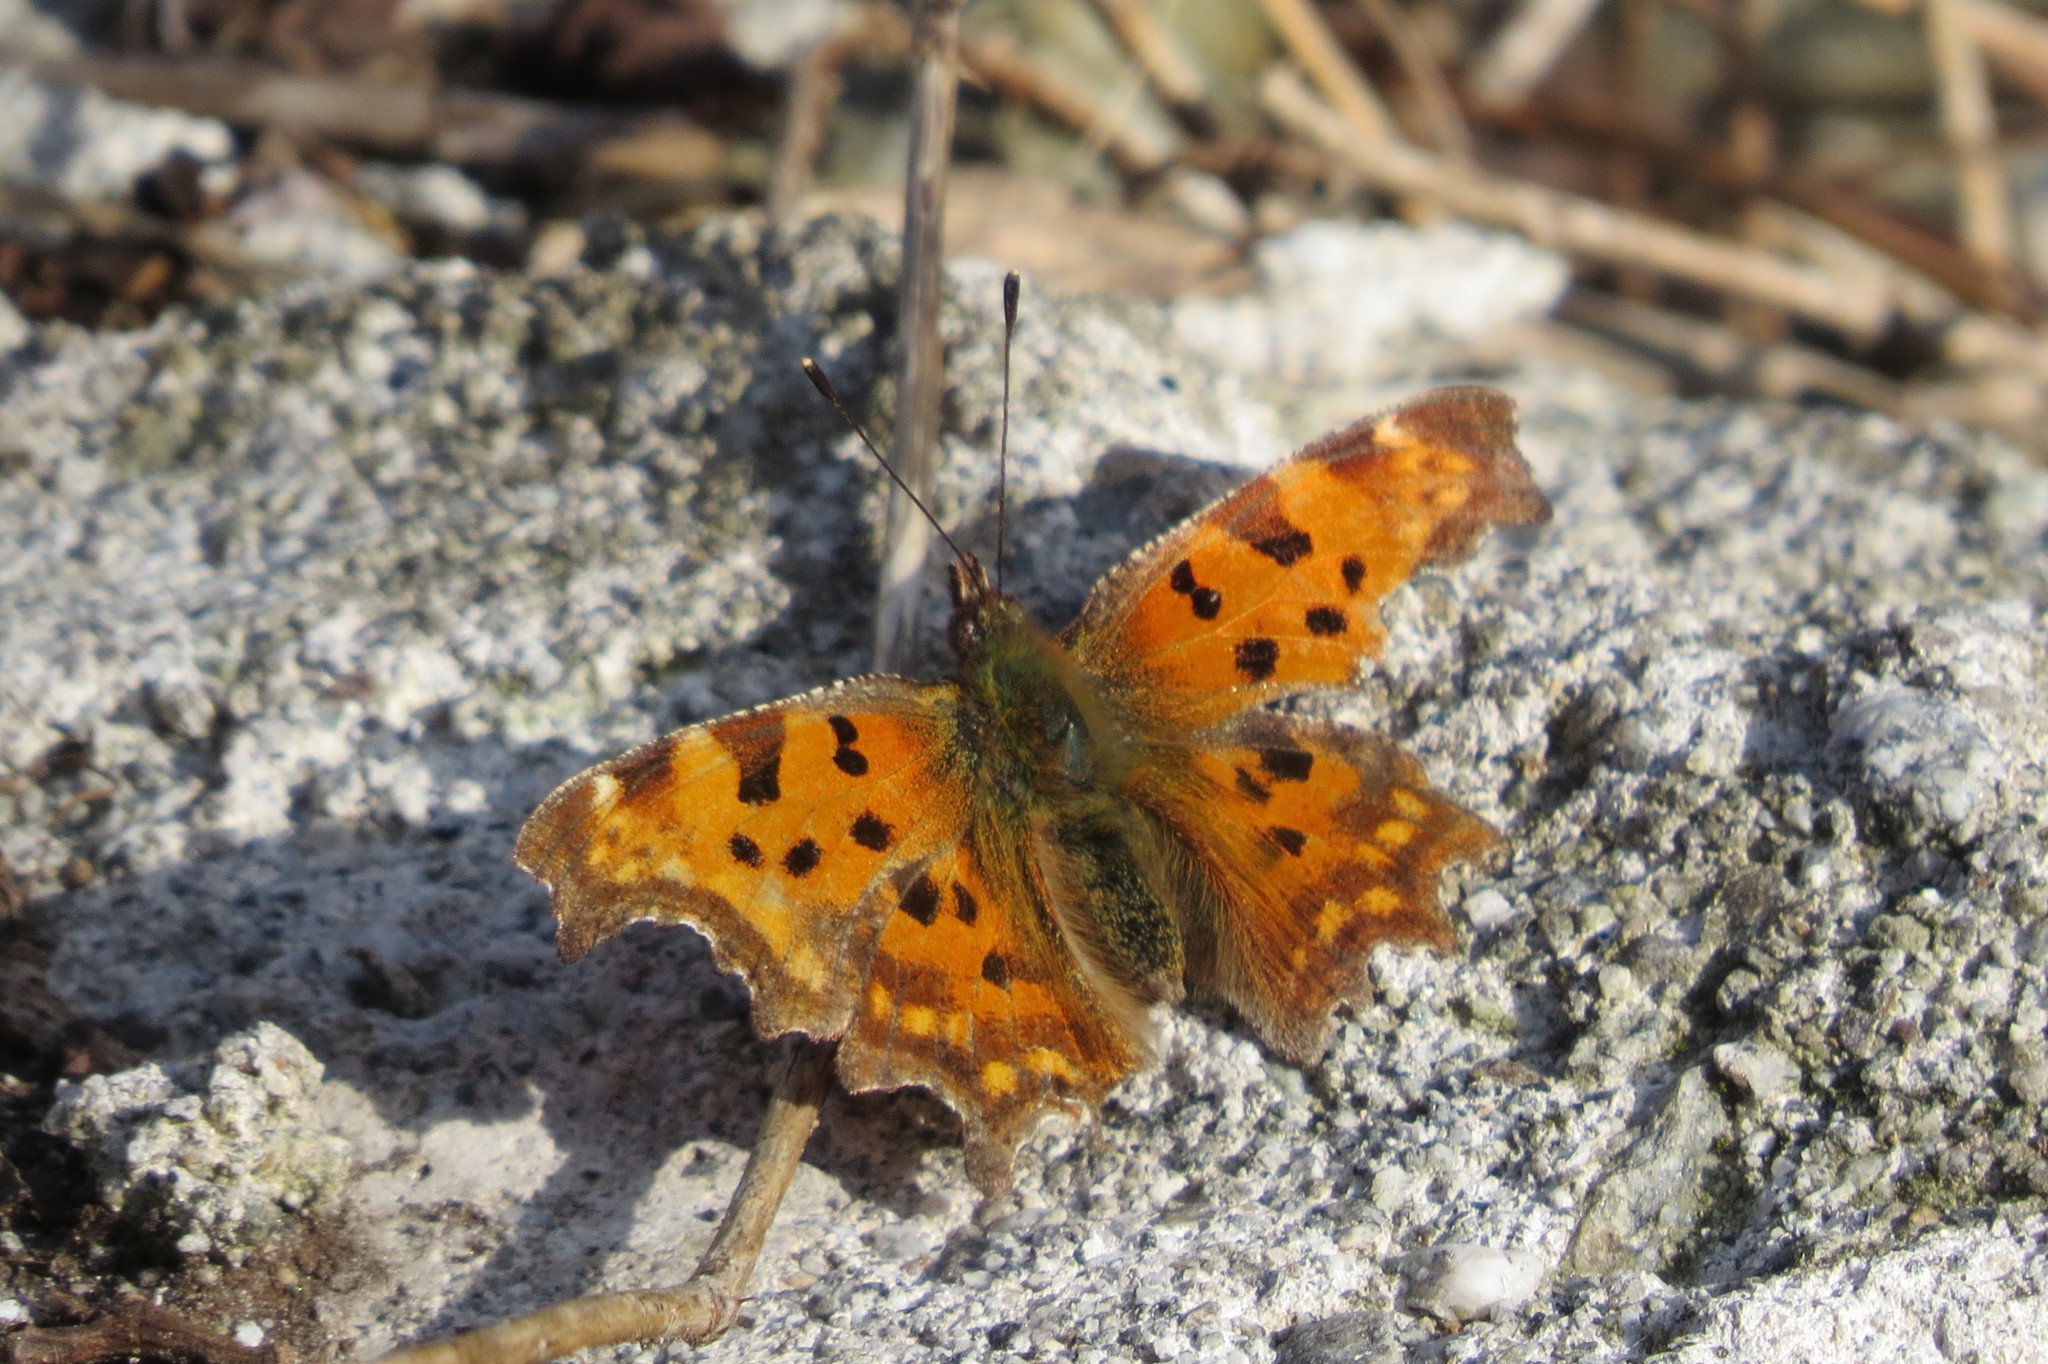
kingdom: Animalia
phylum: Arthropoda
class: Insecta
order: Lepidoptera
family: Nymphalidae
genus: Polygonia
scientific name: Polygonia c-album
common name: Comma
